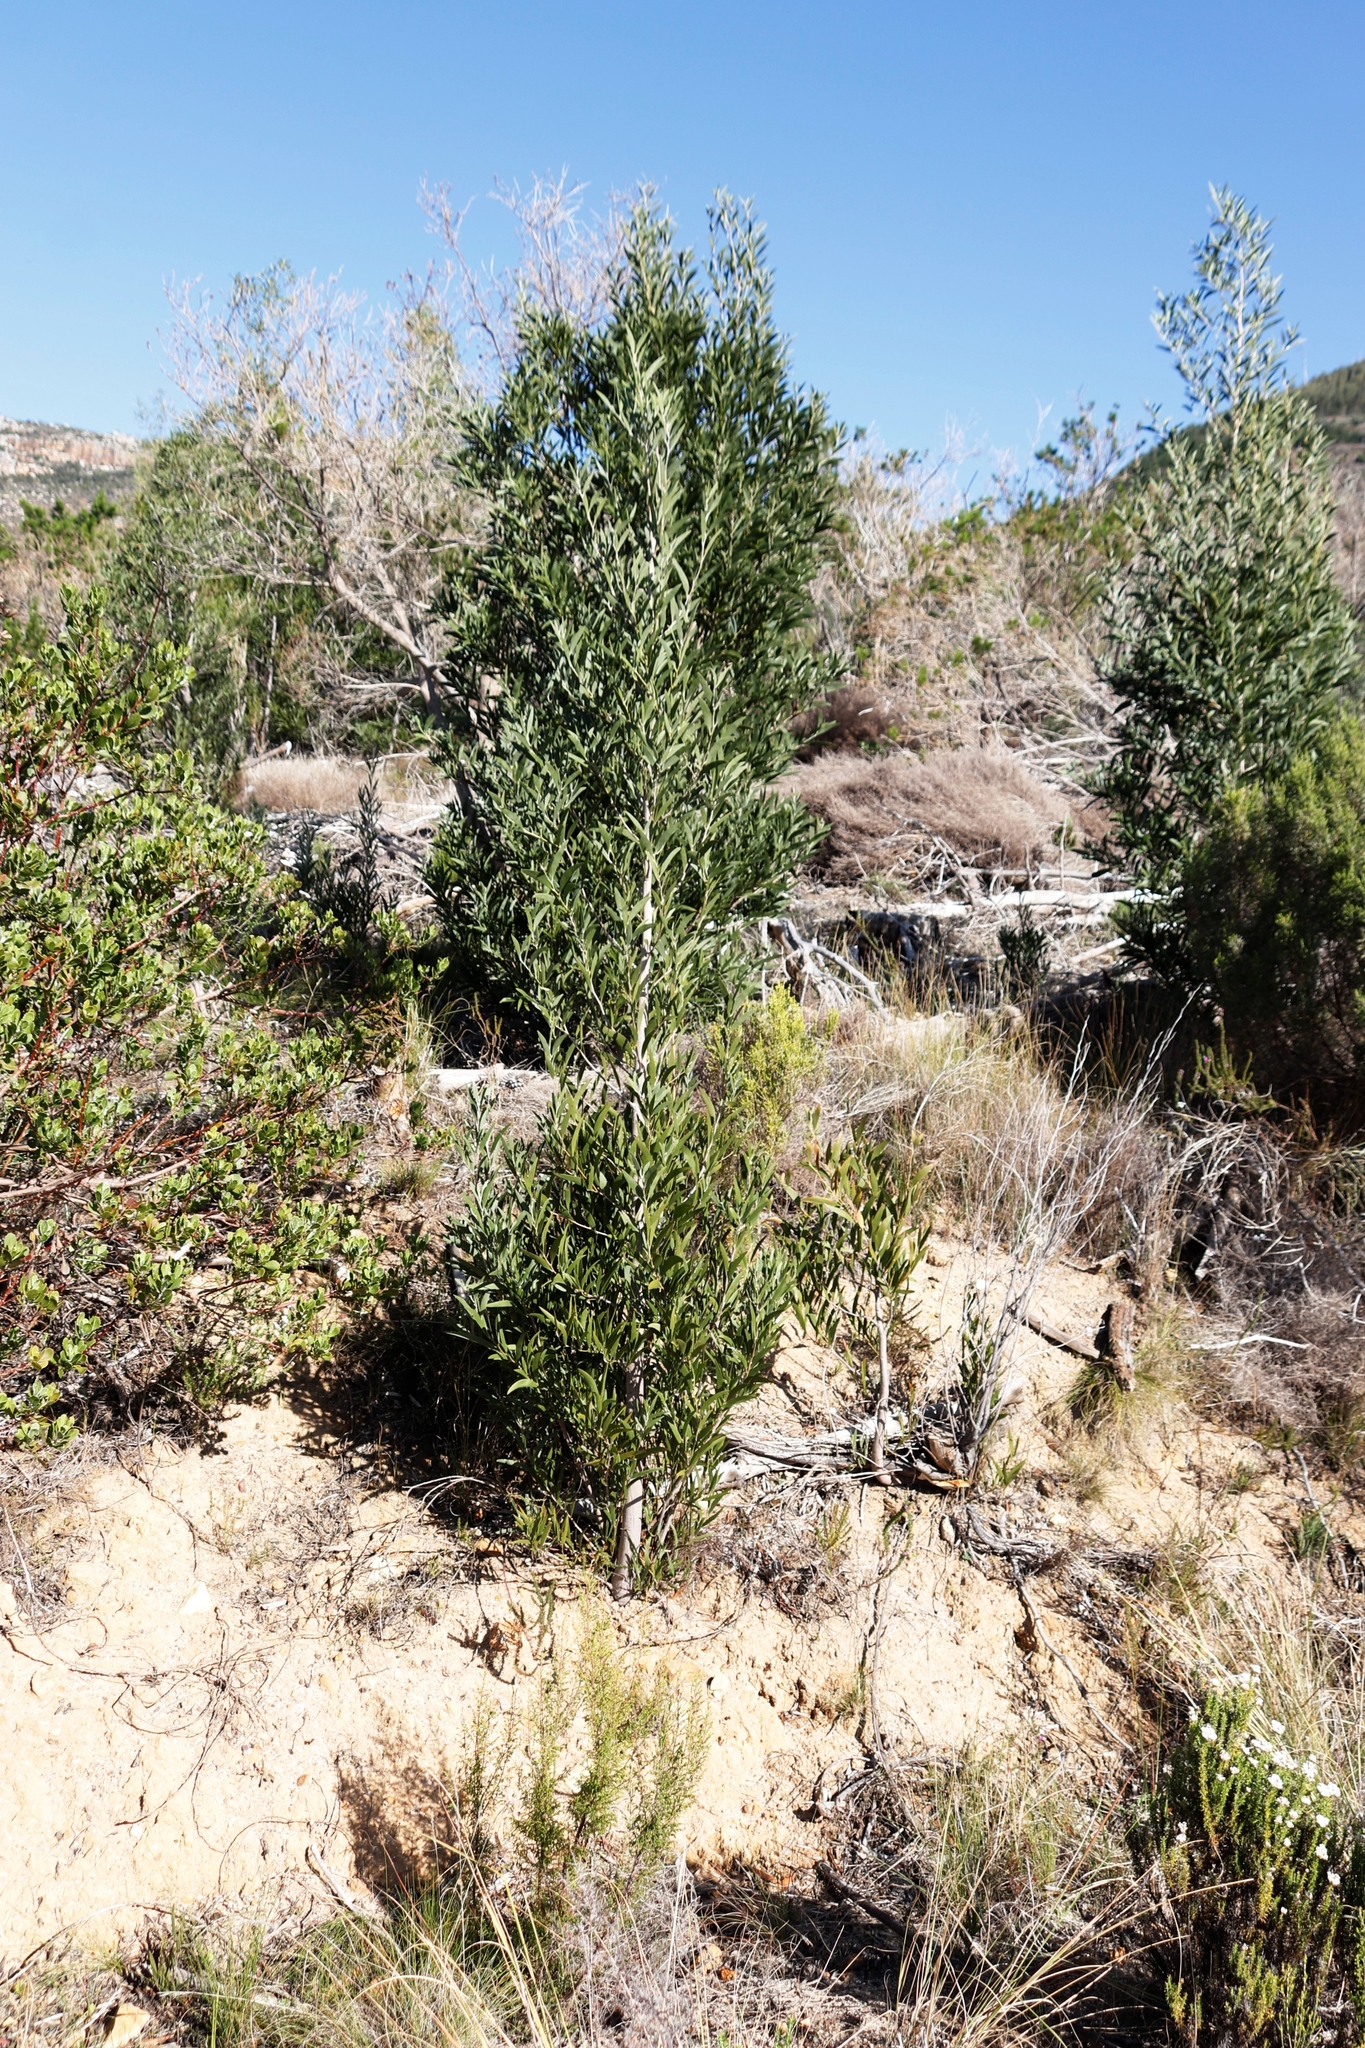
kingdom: Plantae
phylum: Tracheophyta
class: Magnoliopsida
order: Fabales
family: Fabaceae
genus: Acacia
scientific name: Acacia melanoxylon
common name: Blackwood
